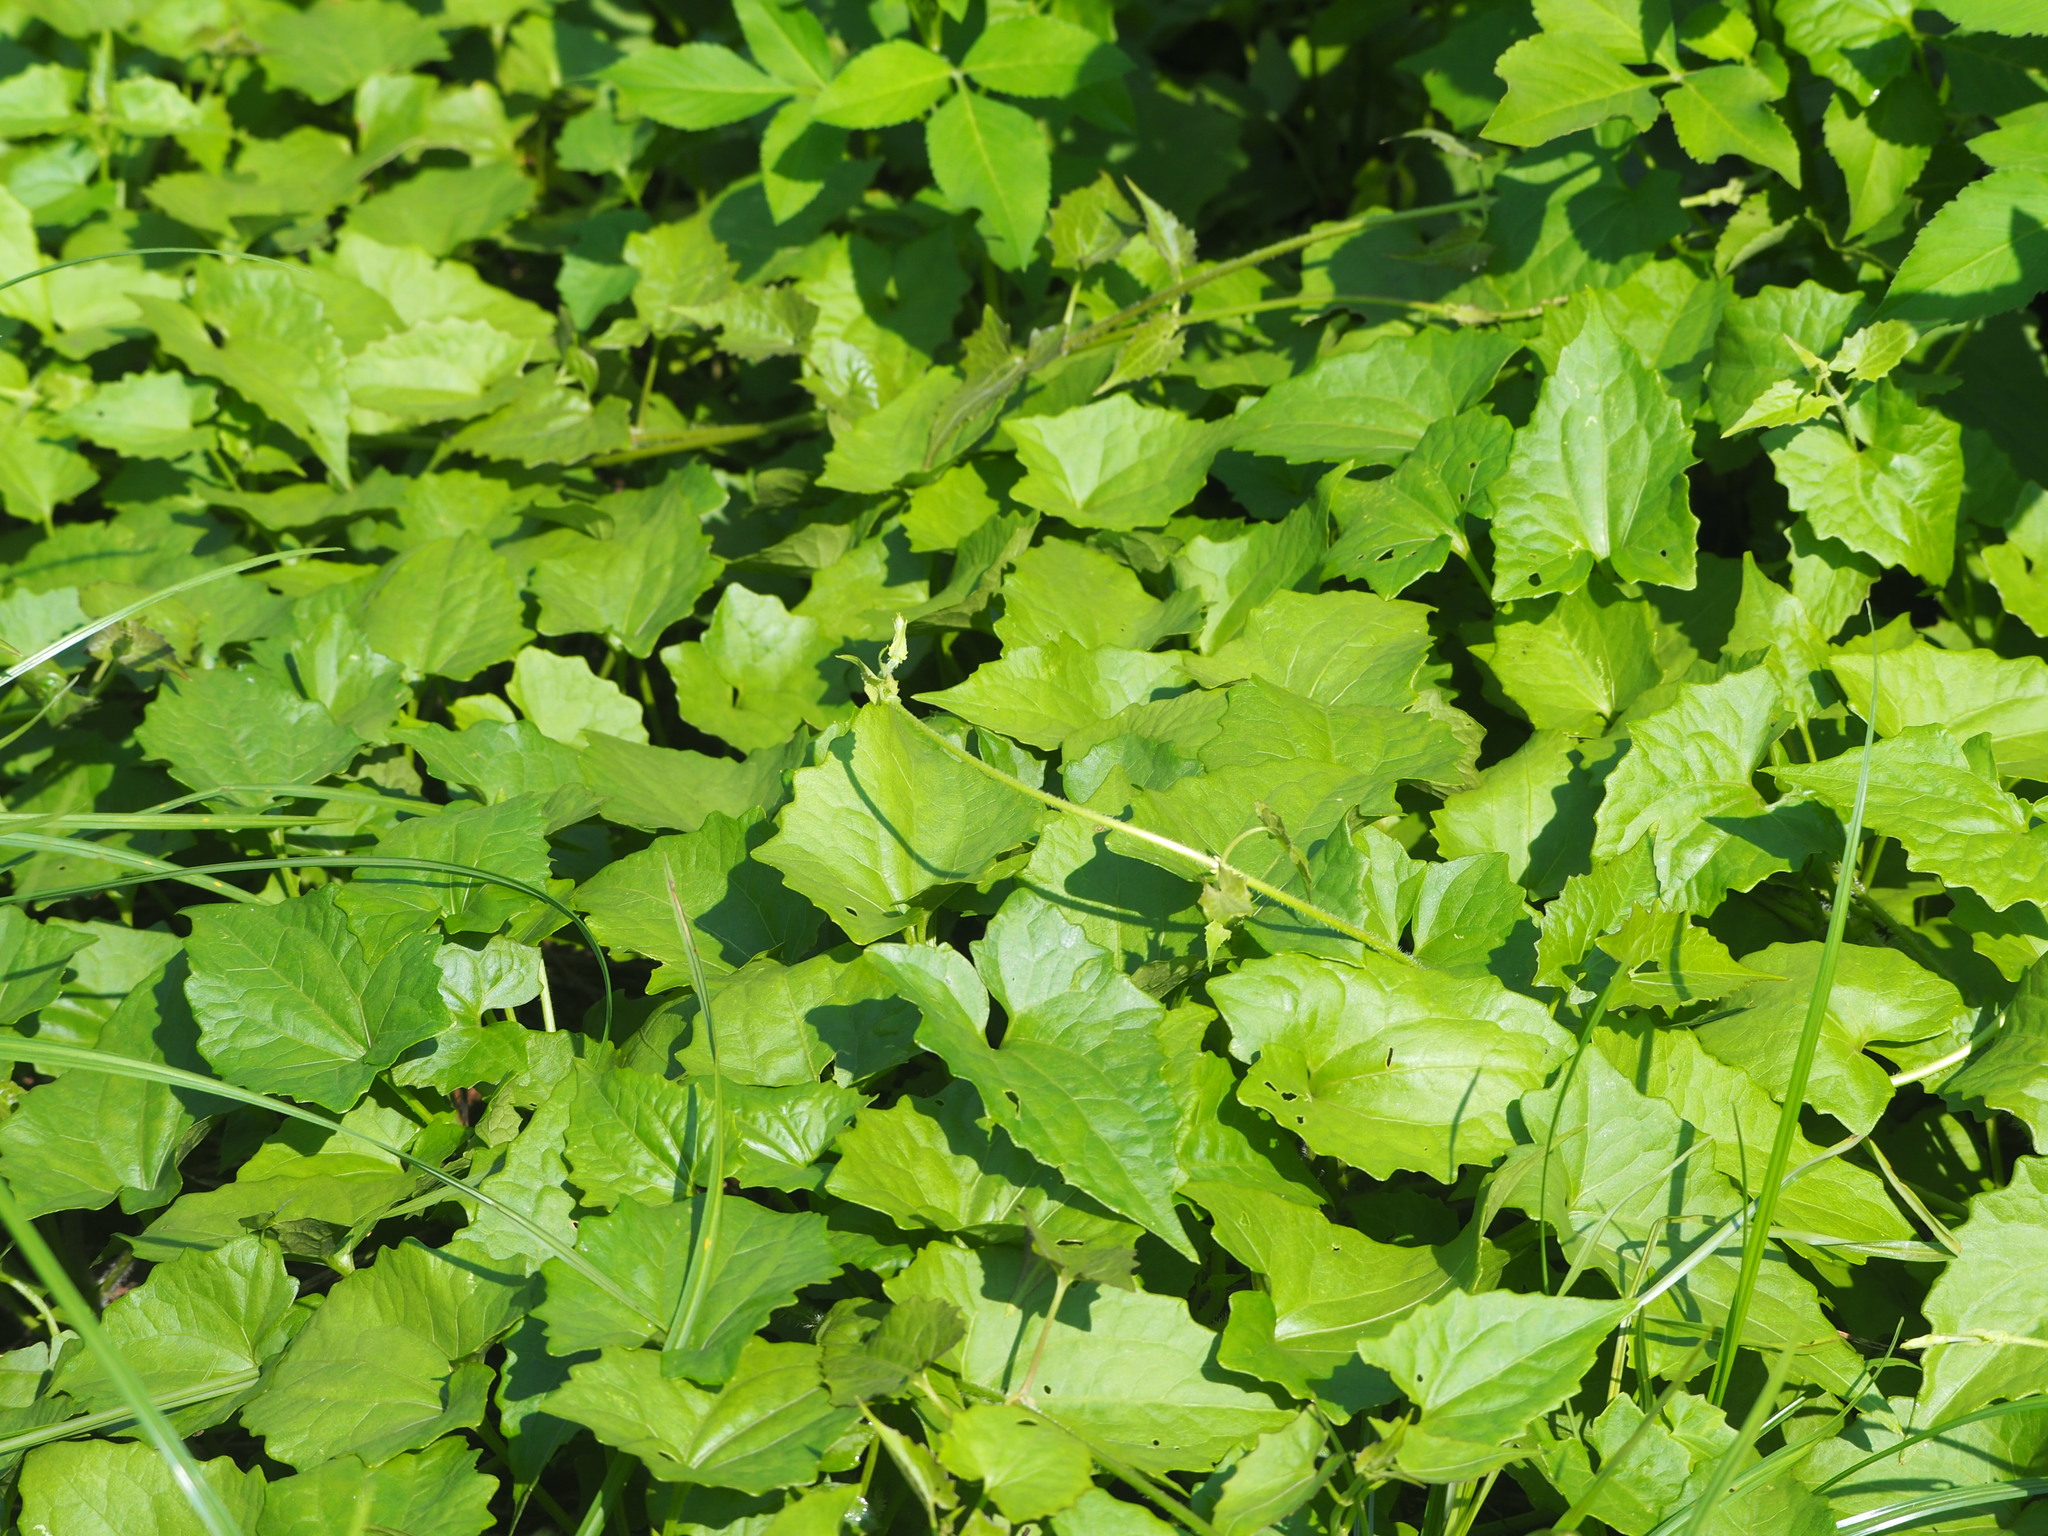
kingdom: Plantae
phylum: Tracheophyta
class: Magnoliopsida
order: Asterales
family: Asteraceae
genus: Mikania
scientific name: Mikania micrantha
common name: Mile-a-minute
